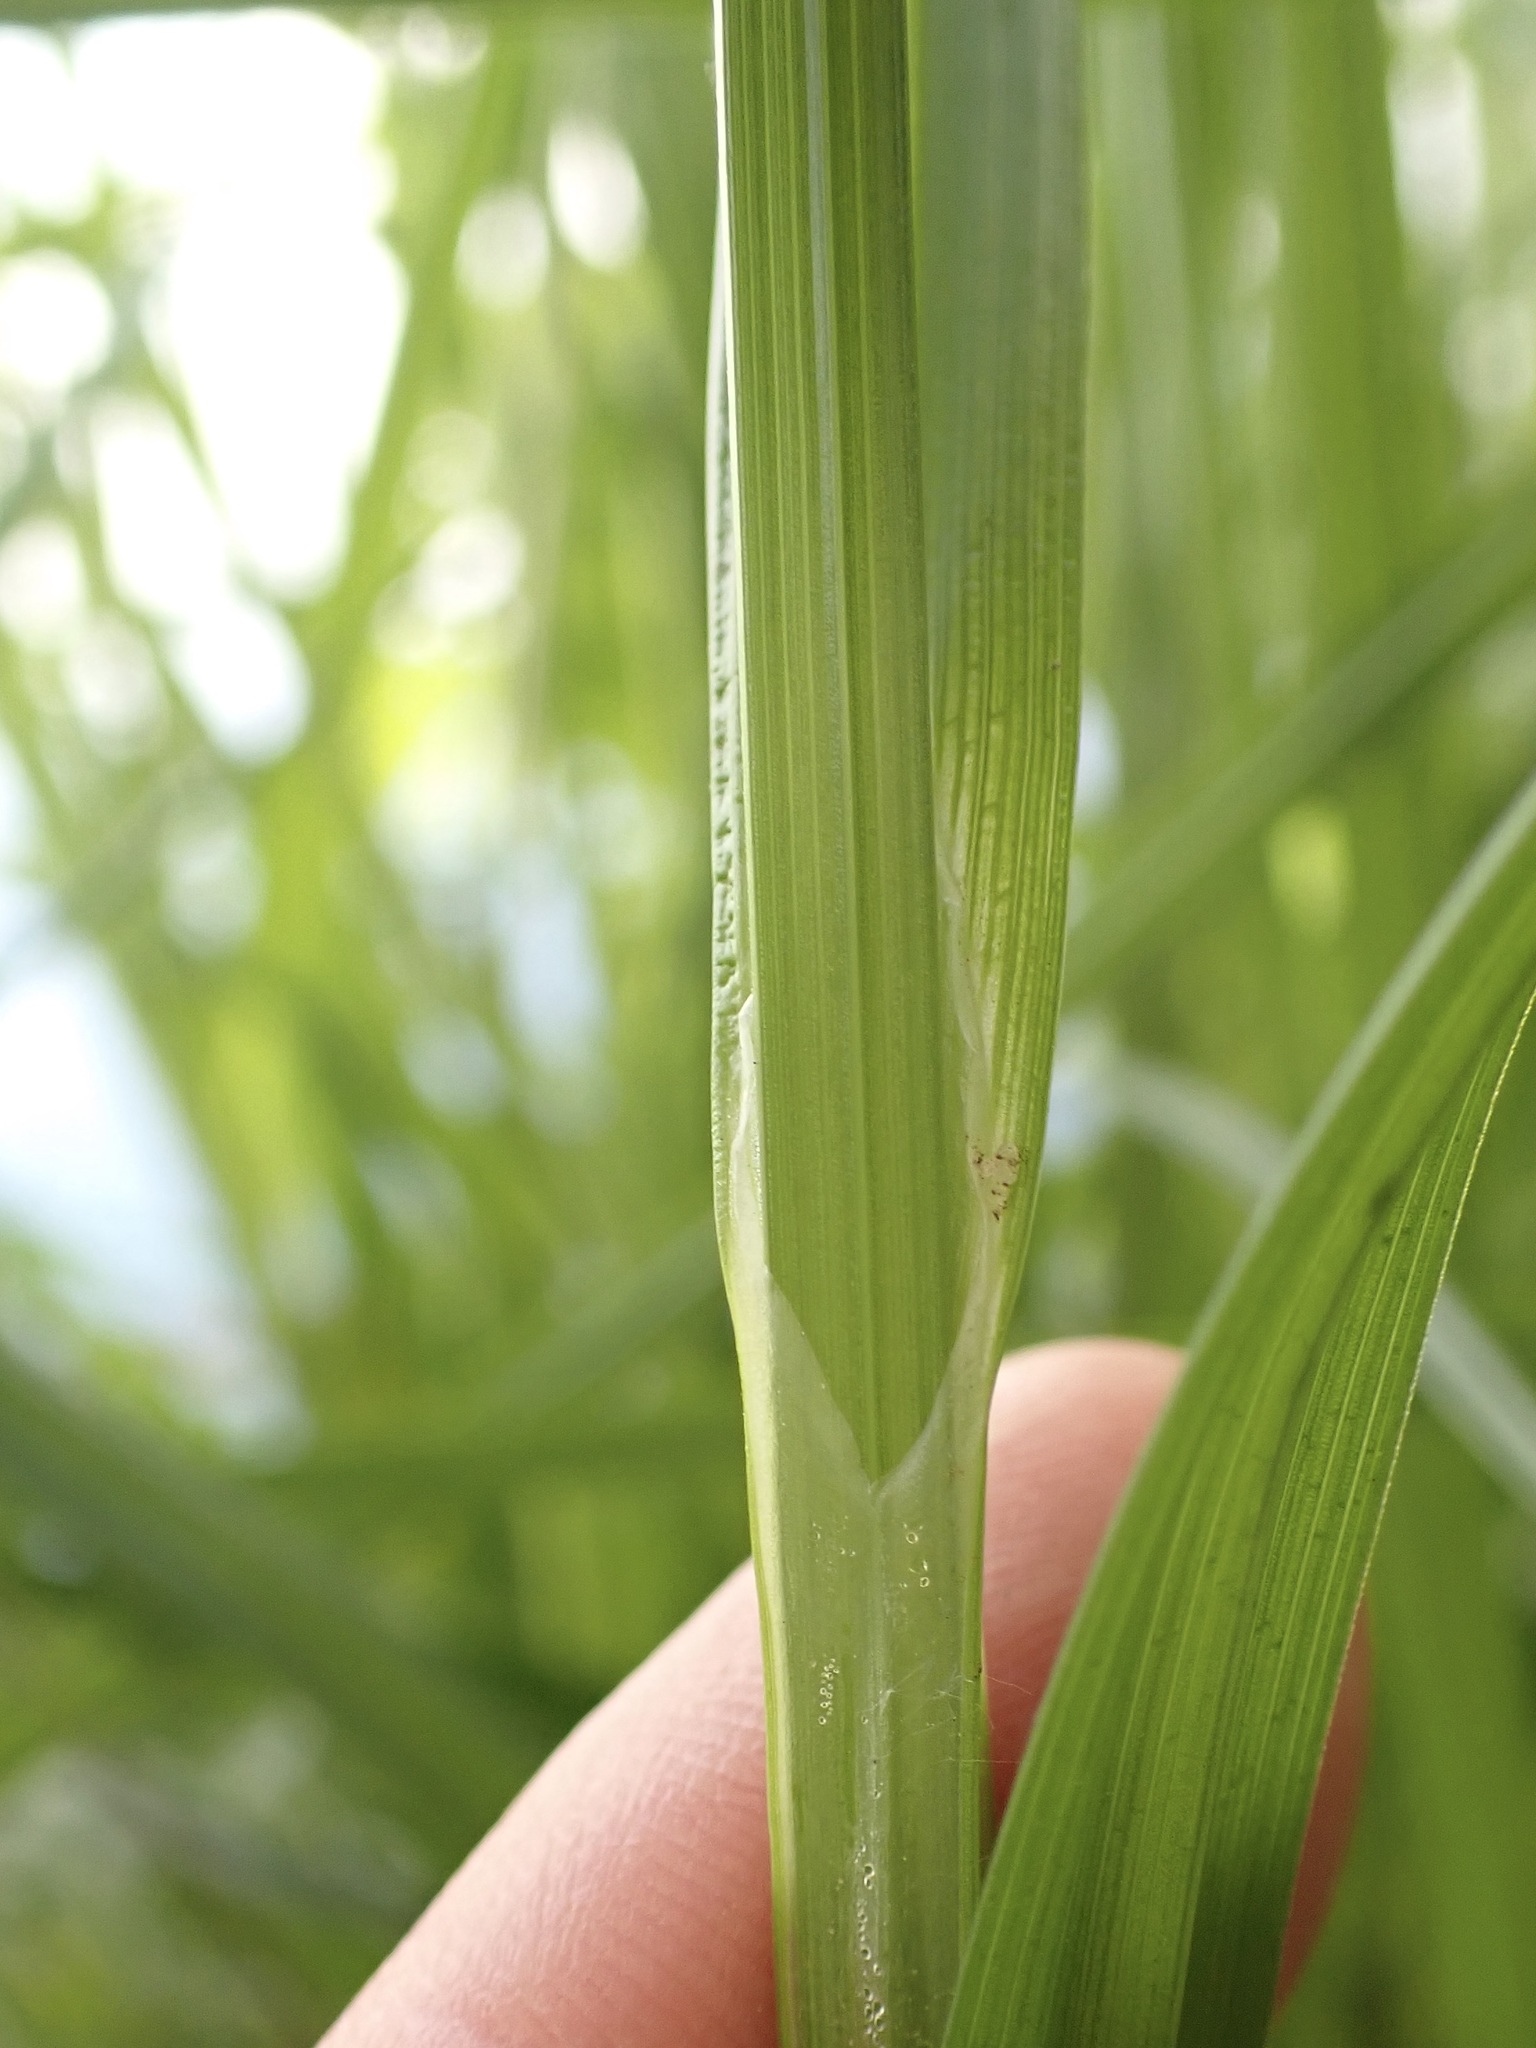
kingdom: Plantae
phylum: Tracheophyta
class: Liliopsida
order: Poales
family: Cyperaceae
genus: Carex
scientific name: Carex otrubae
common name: False fox-sedge
